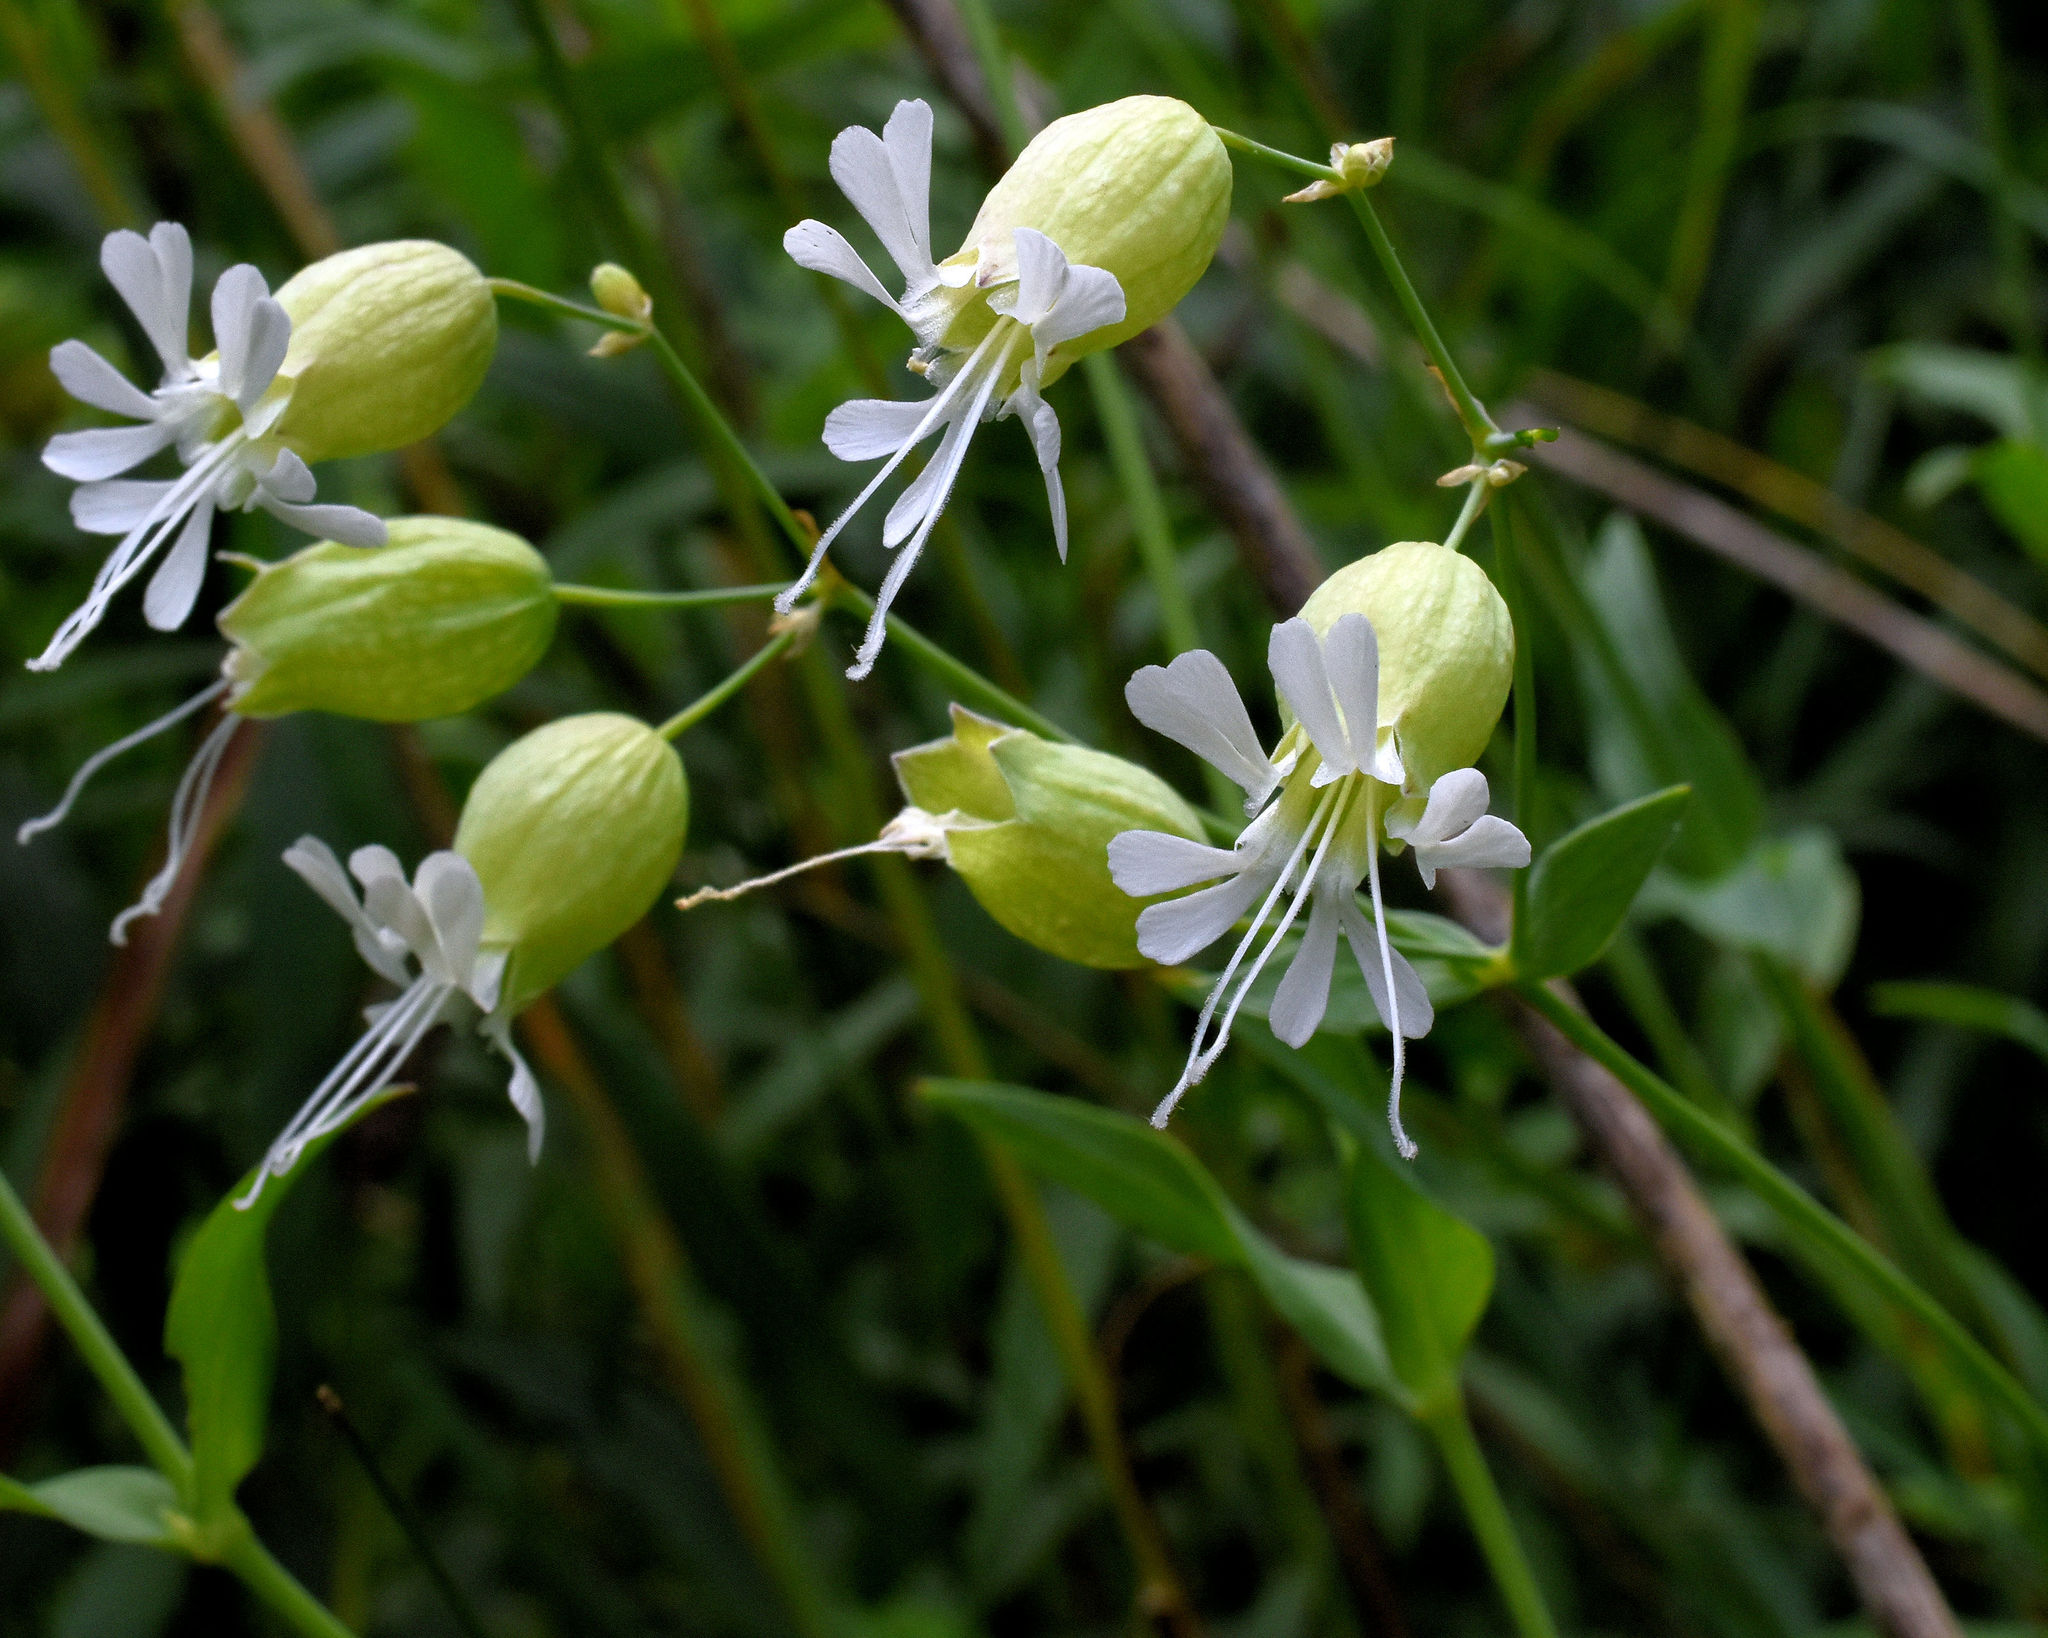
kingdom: Plantae
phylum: Tracheophyta
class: Magnoliopsida
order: Caryophyllales
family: Caryophyllaceae
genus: Silene
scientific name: Silene vulgaris
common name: Bladder campion
